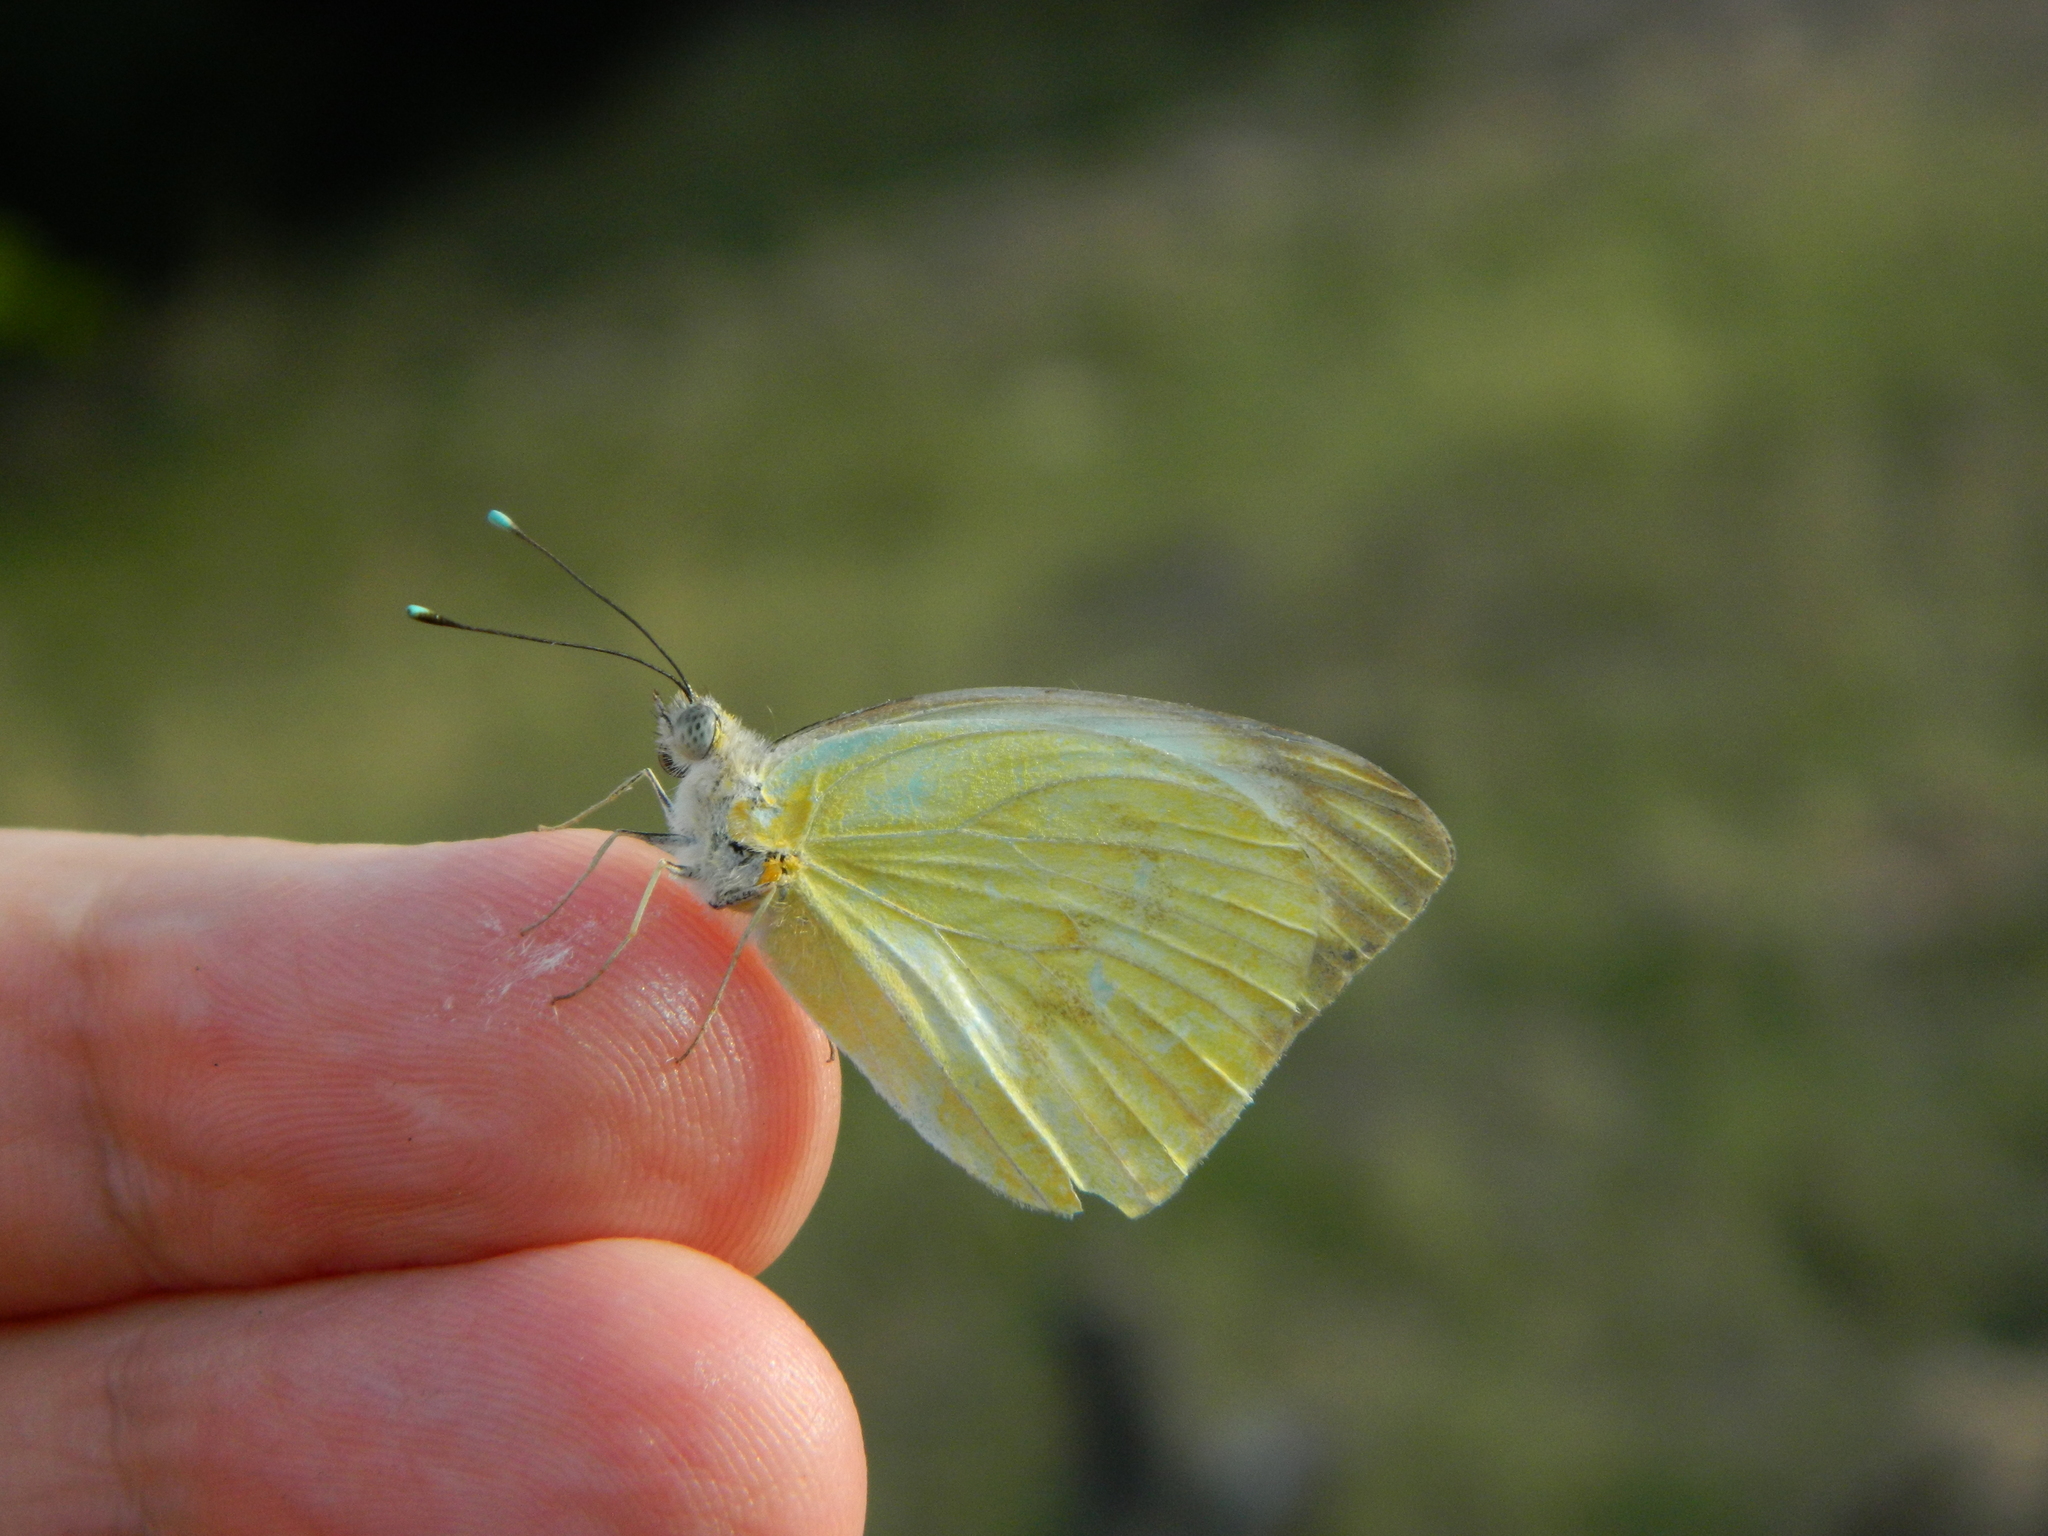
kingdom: Animalia
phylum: Arthropoda
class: Insecta
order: Lepidoptera
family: Pieridae
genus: Ascia
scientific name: Ascia monuste
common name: Great southern white
